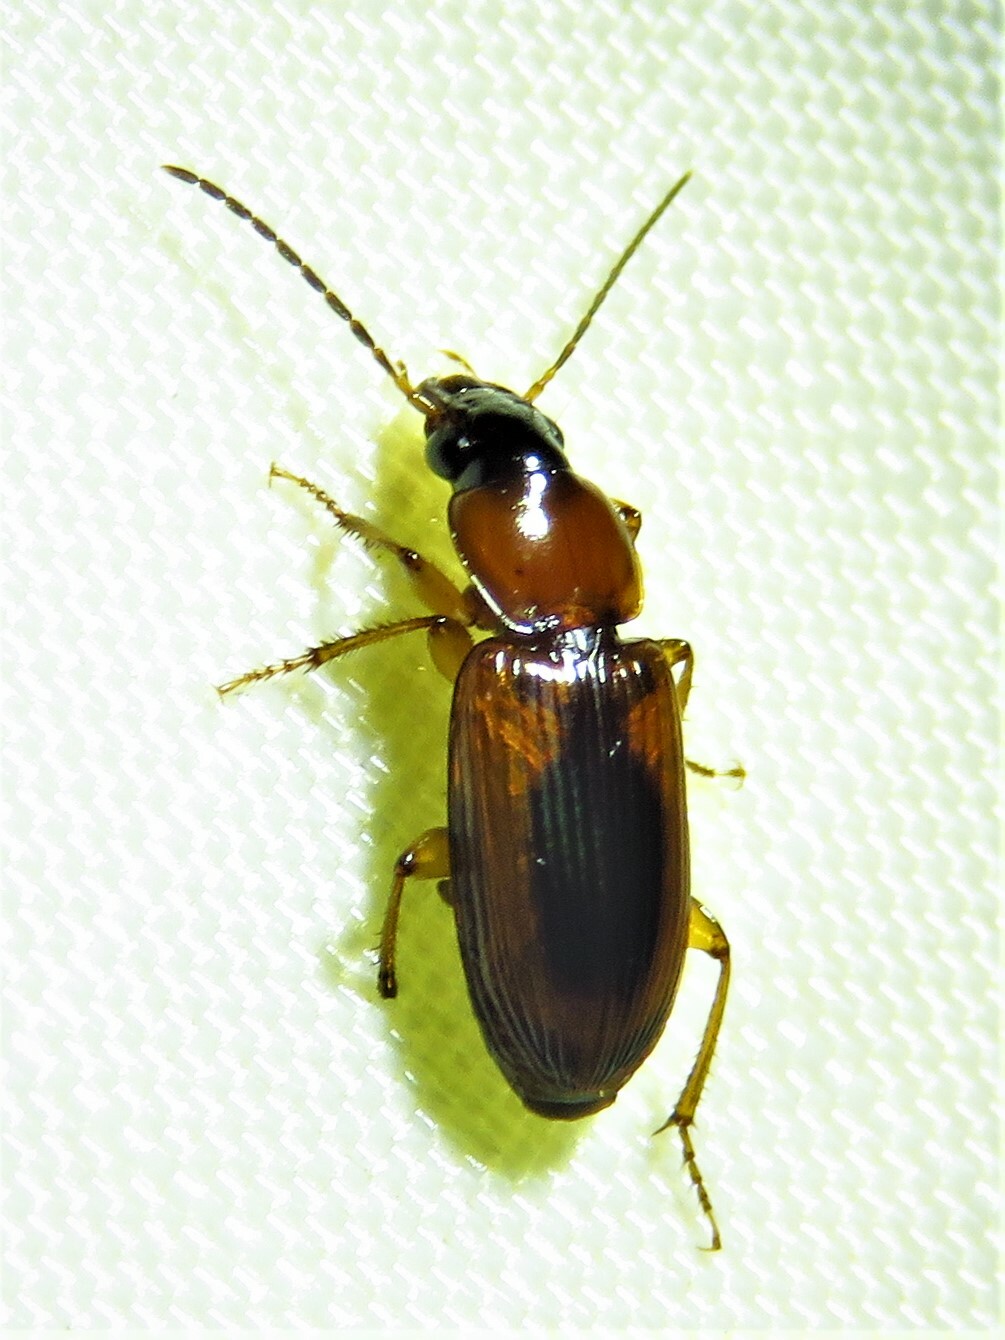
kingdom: Animalia
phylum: Arthropoda
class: Insecta
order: Coleoptera
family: Carabidae
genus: Stenolophus
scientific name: Stenolophus dissimilis
